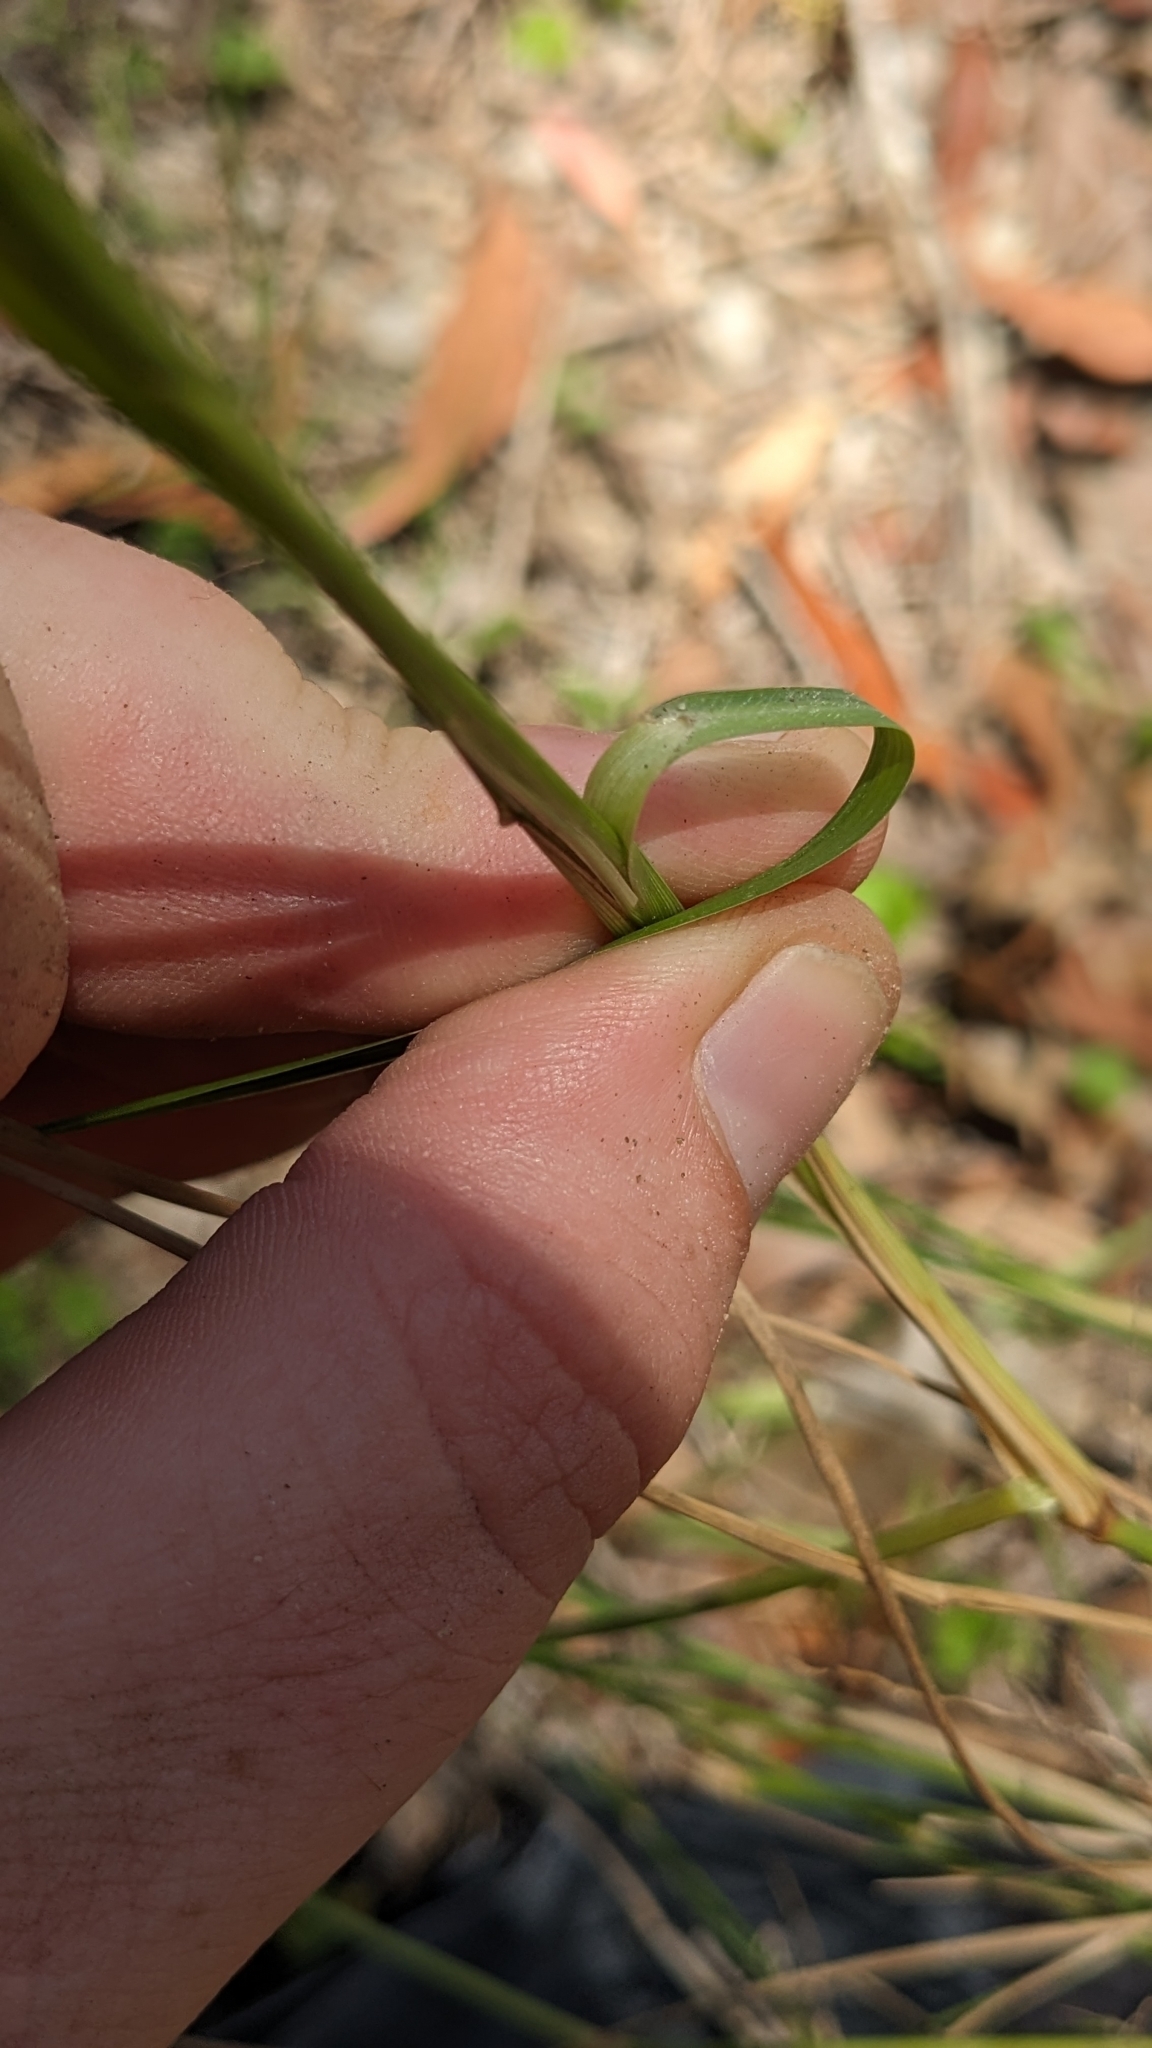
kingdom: Plantae
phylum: Tracheophyta
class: Liliopsida
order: Poales
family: Poaceae
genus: Panicum
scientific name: Panicum
